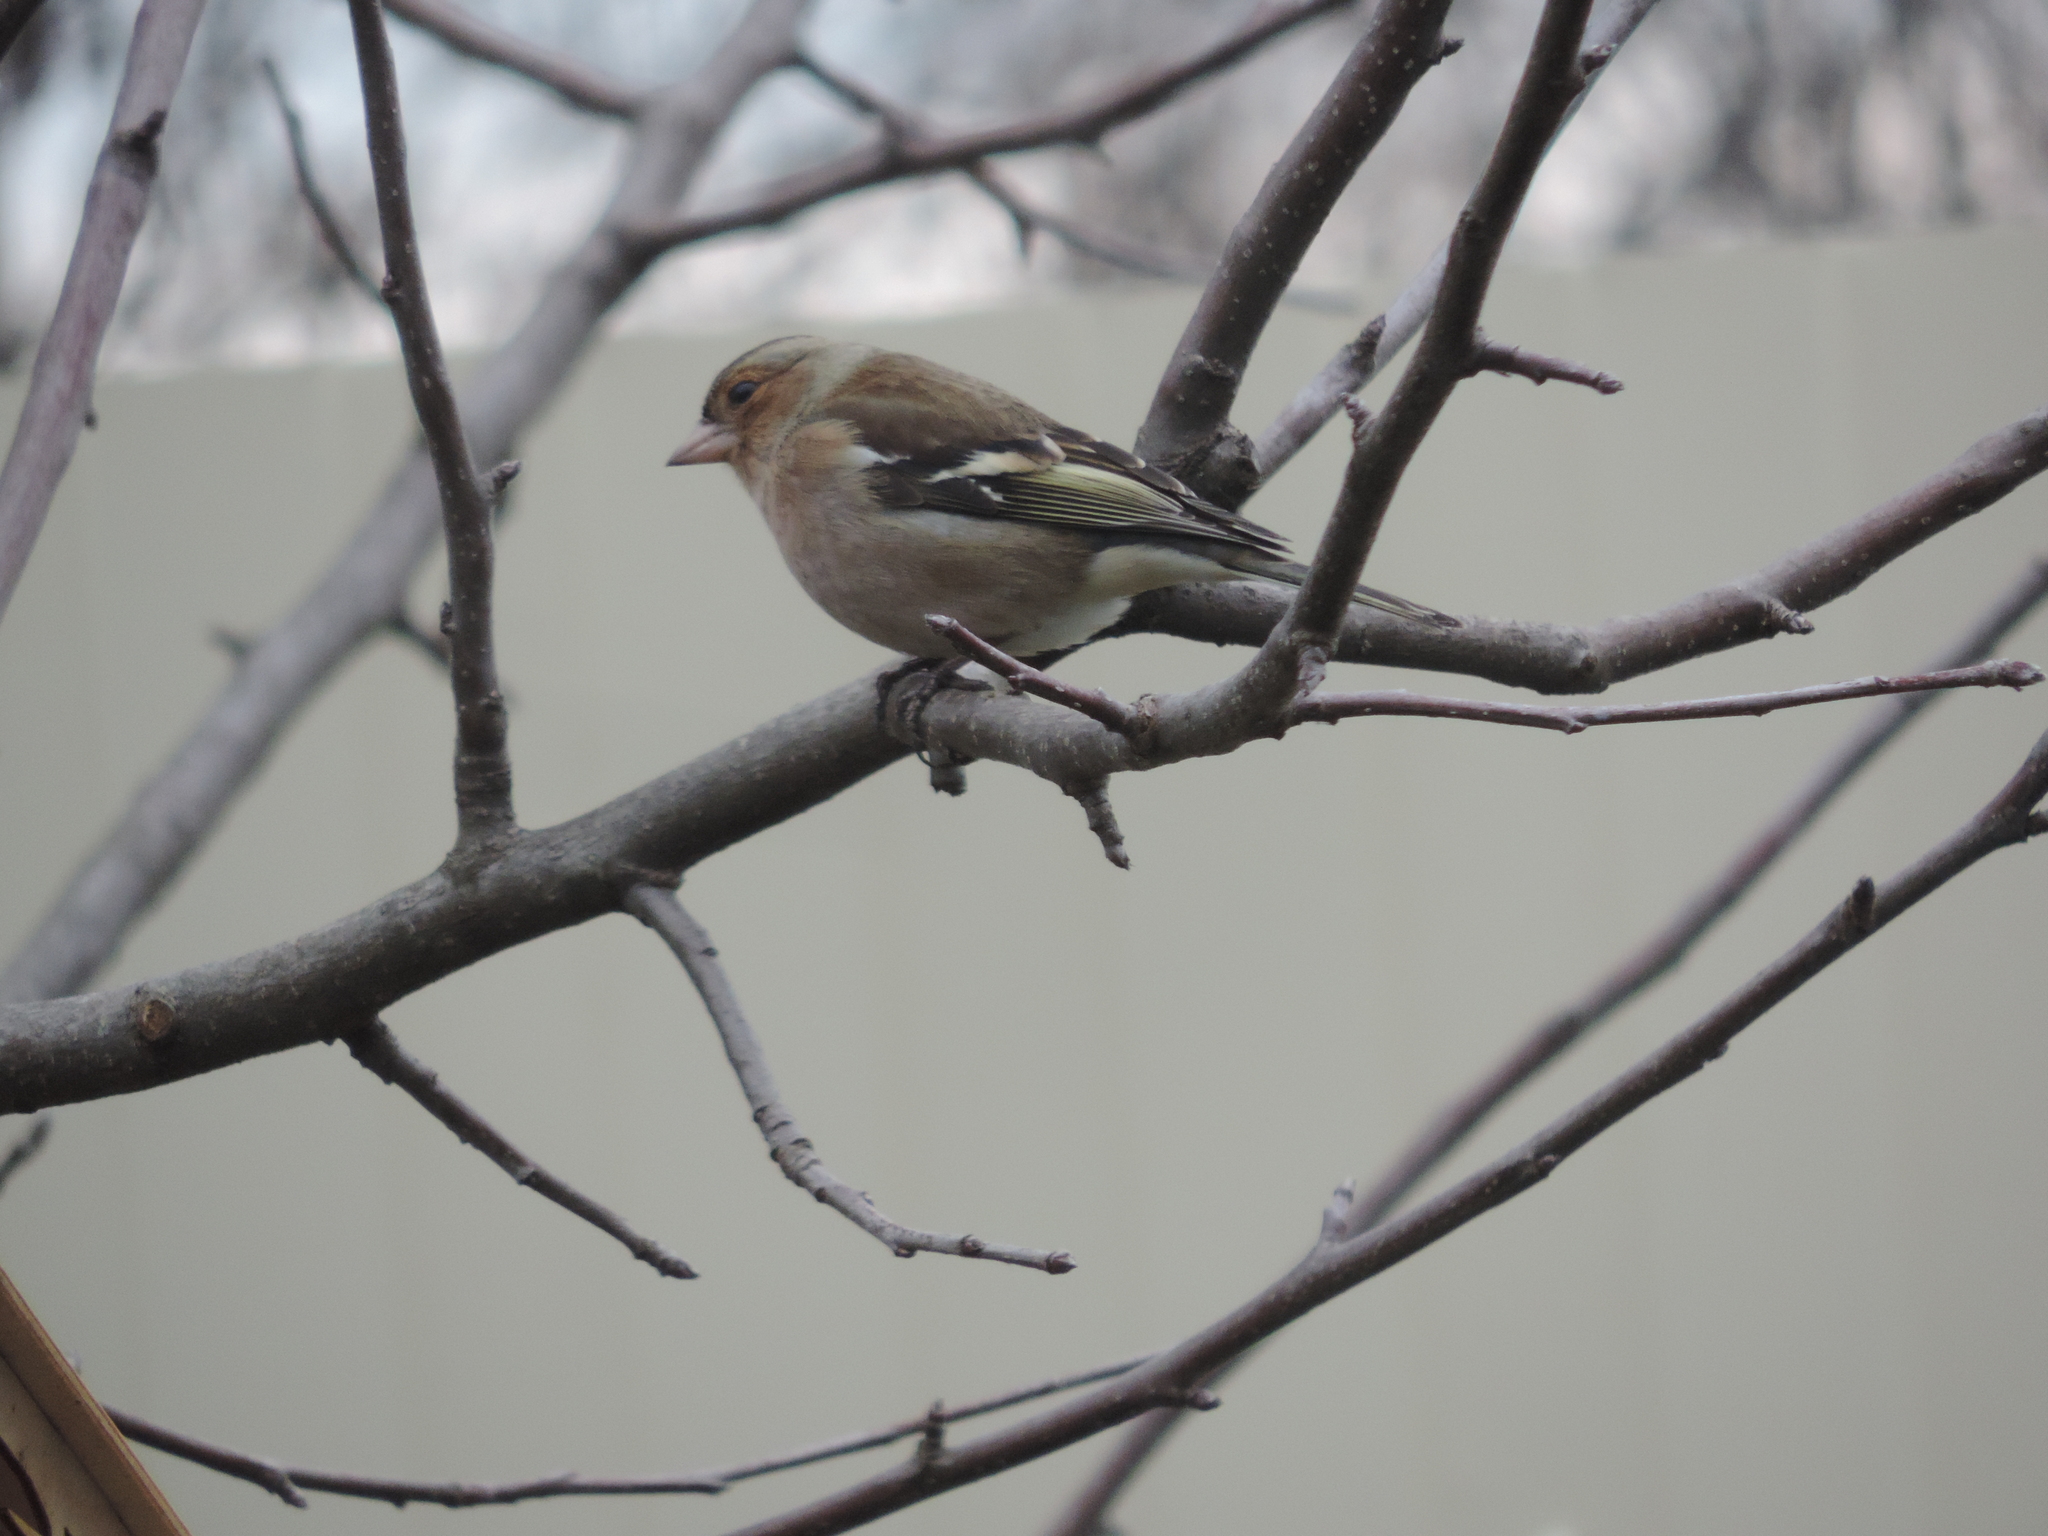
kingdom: Animalia
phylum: Chordata
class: Aves
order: Passeriformes
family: Fringillidae
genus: Fringilla
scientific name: Fringilla coelebs
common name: Common chaffinch
